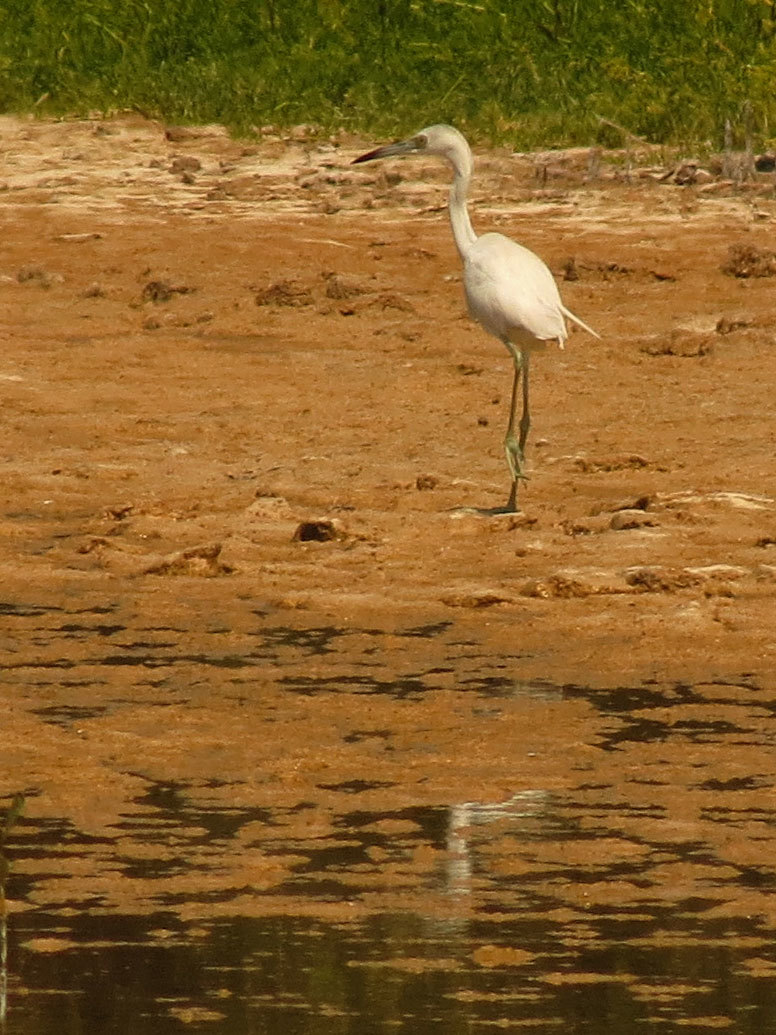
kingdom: Animalia
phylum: Chordata
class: Aves
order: Pelecaniformes
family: Ardeidae
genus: Egretta
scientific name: Egretta caerulea
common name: Little blue heron
